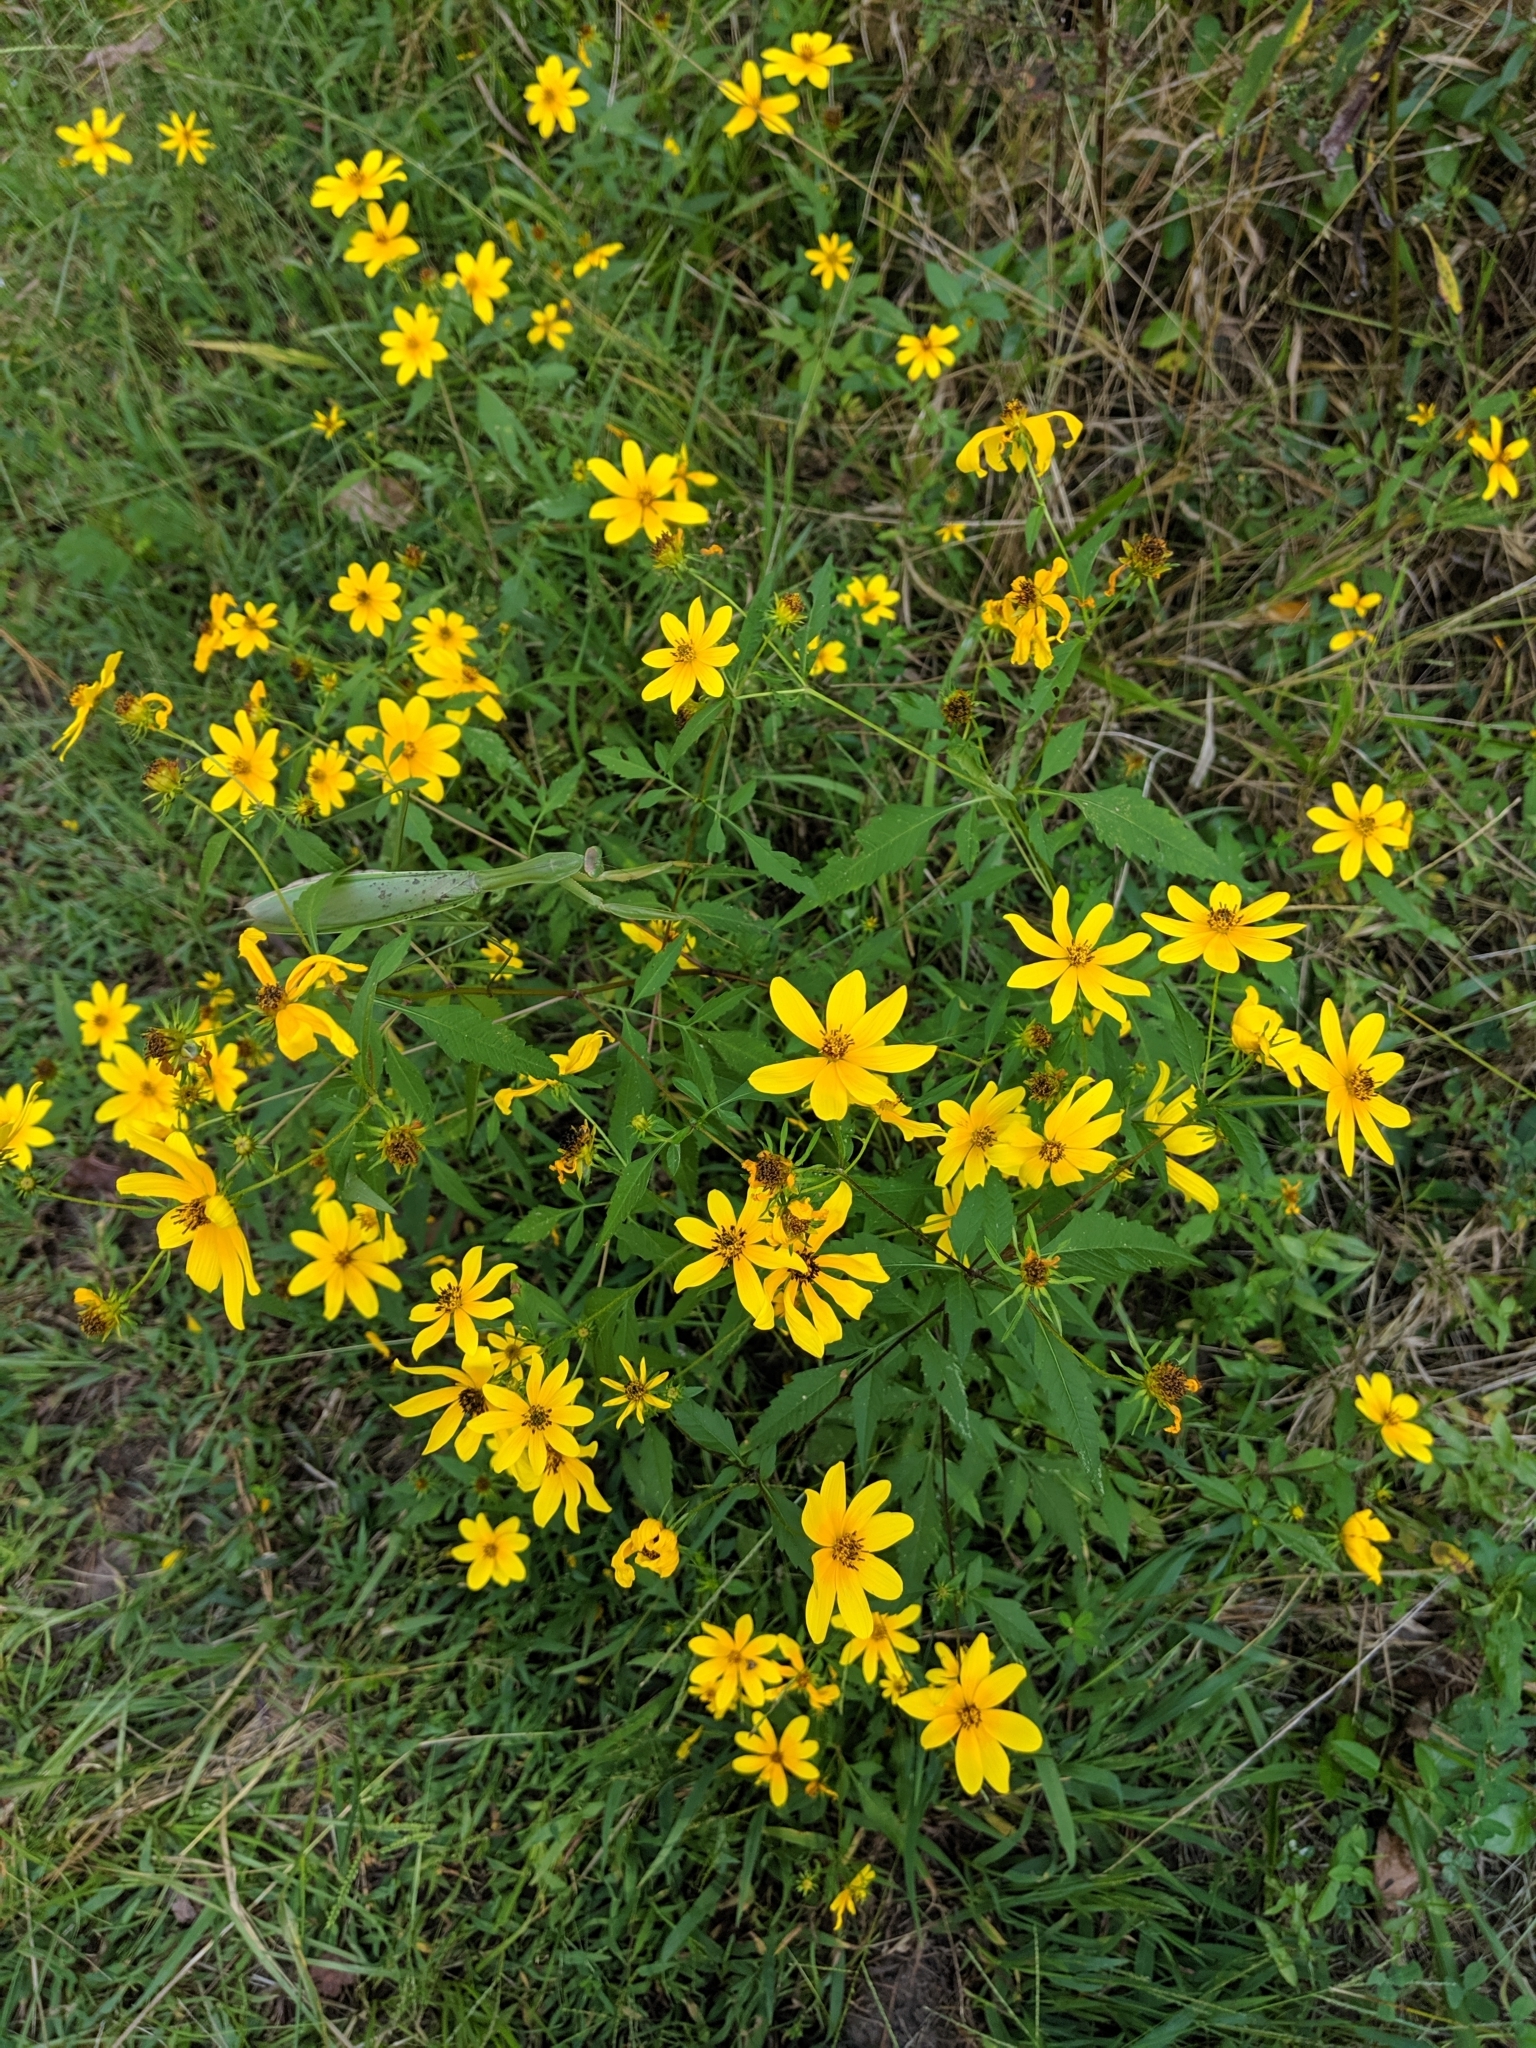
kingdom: Plantae
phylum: Tracheophyta
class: Magnoliopsida
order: Asterales
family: Asteraceae
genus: Bidens
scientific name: Bidens aristosa
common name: Western tickseed
